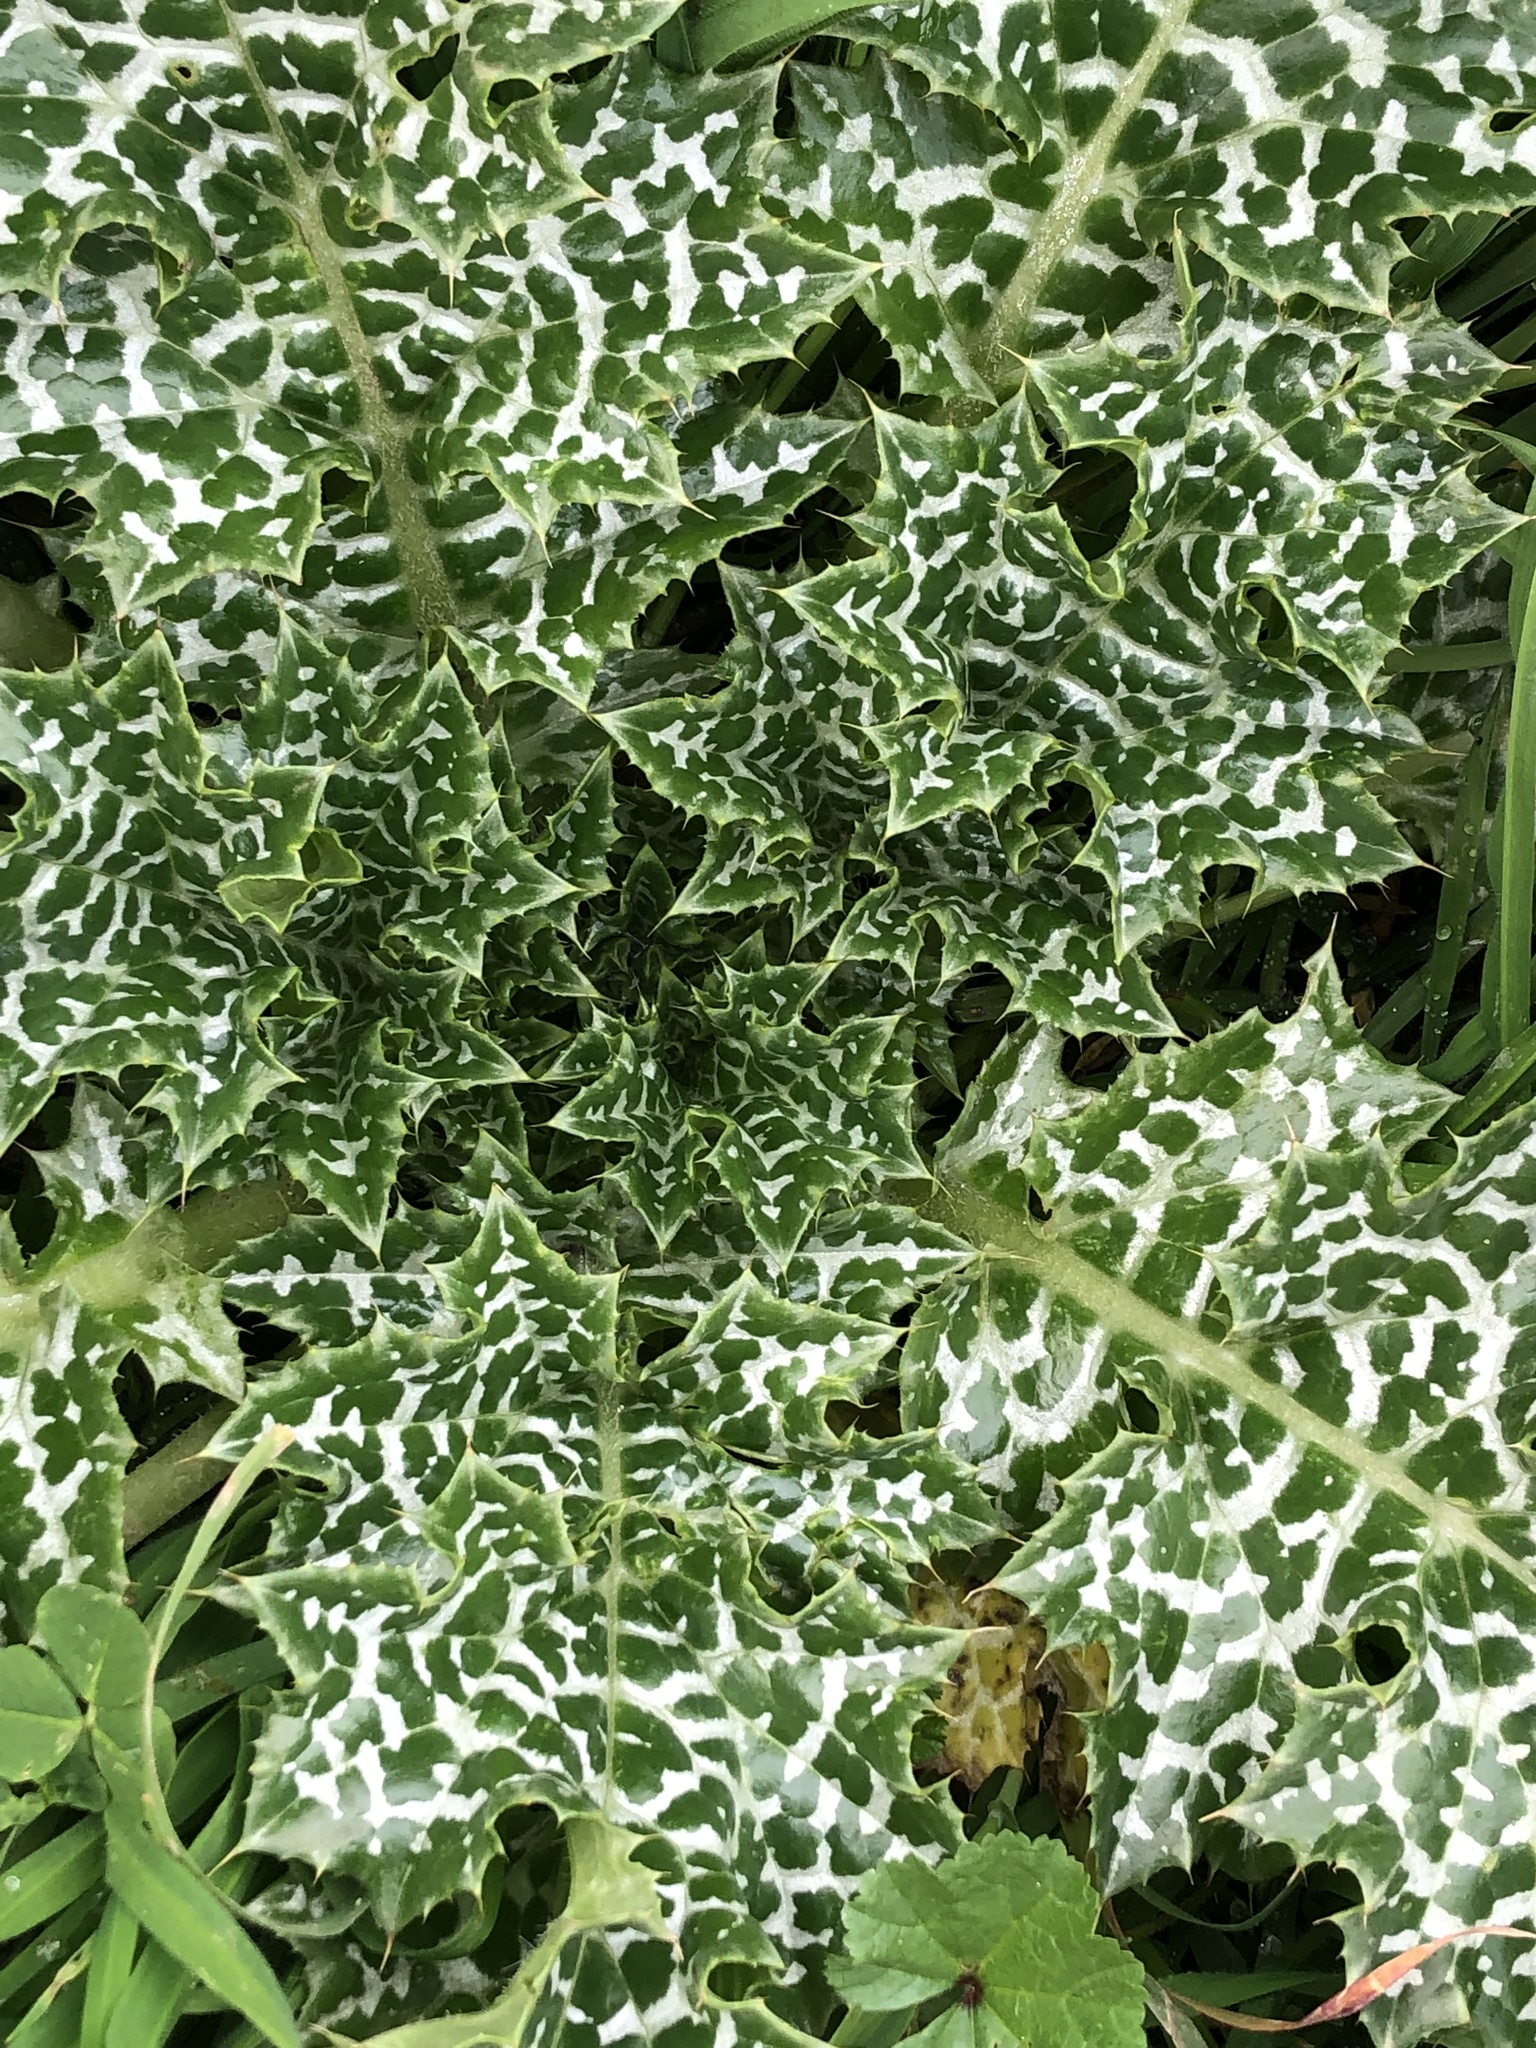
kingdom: Plantae
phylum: Tracheophyta
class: Magnoliopsida
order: Asterales
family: Asteraceae
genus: Silybum
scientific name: Silybum marianum
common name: Milk thistle
